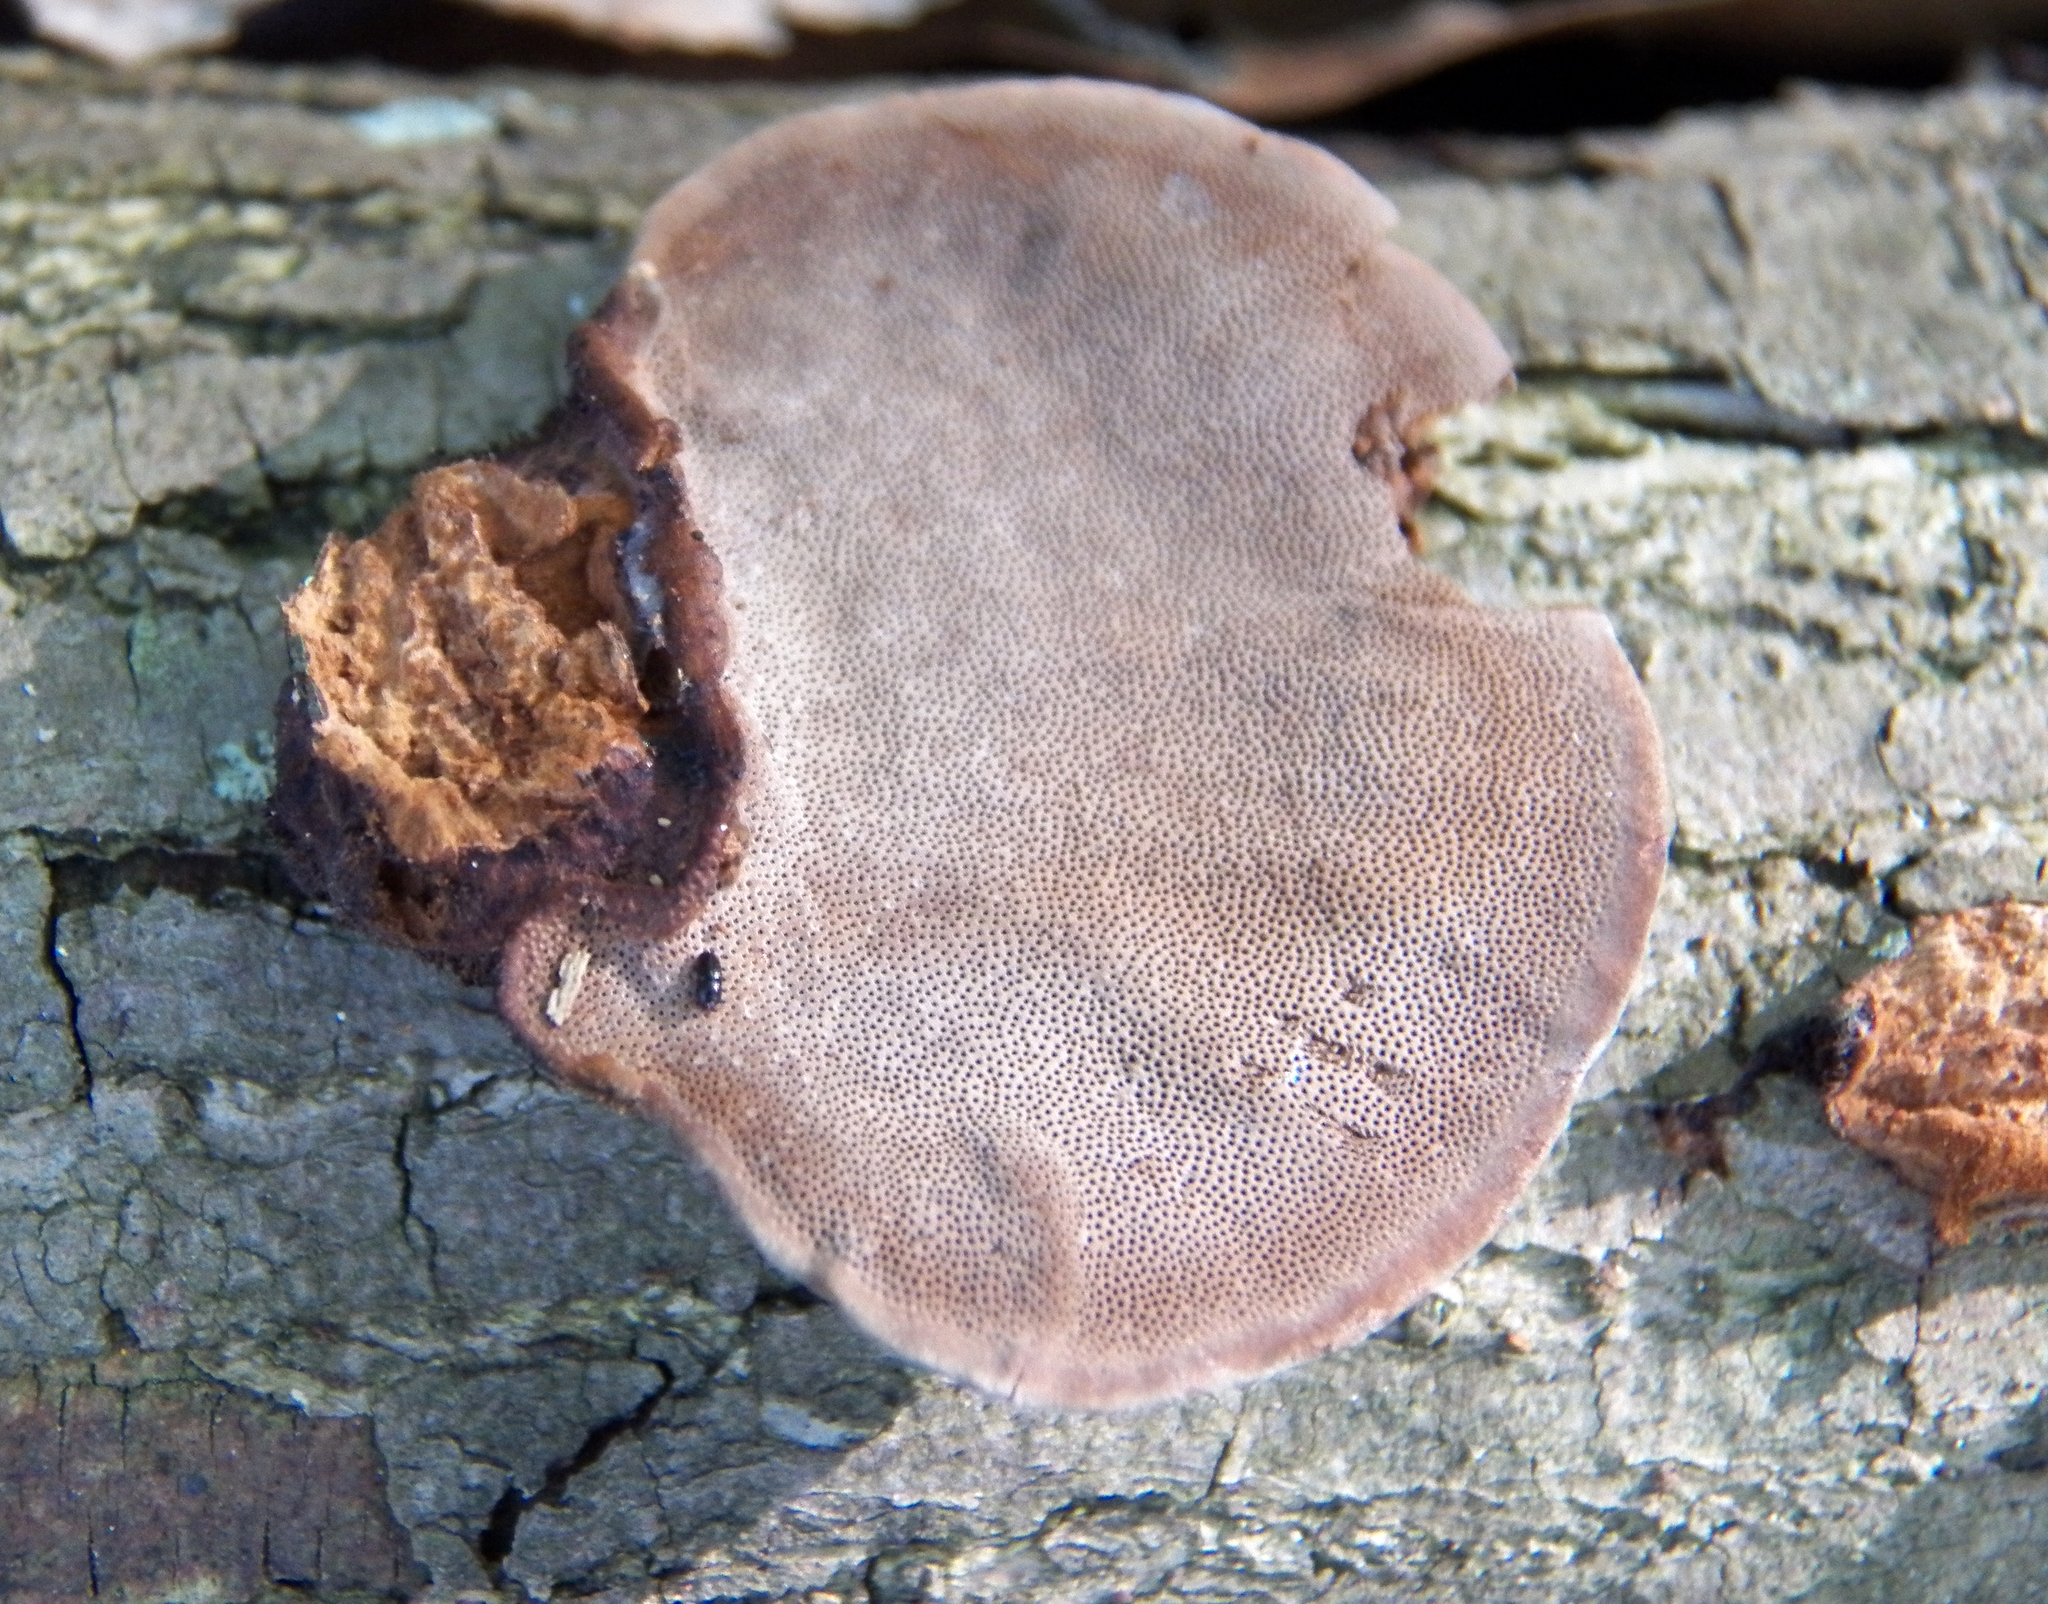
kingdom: Fungi
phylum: Basidiomycota
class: Agaricomycetes
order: Polyporales
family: Cerrenaceae
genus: Cerrena
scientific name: Cerrena hydnoides
